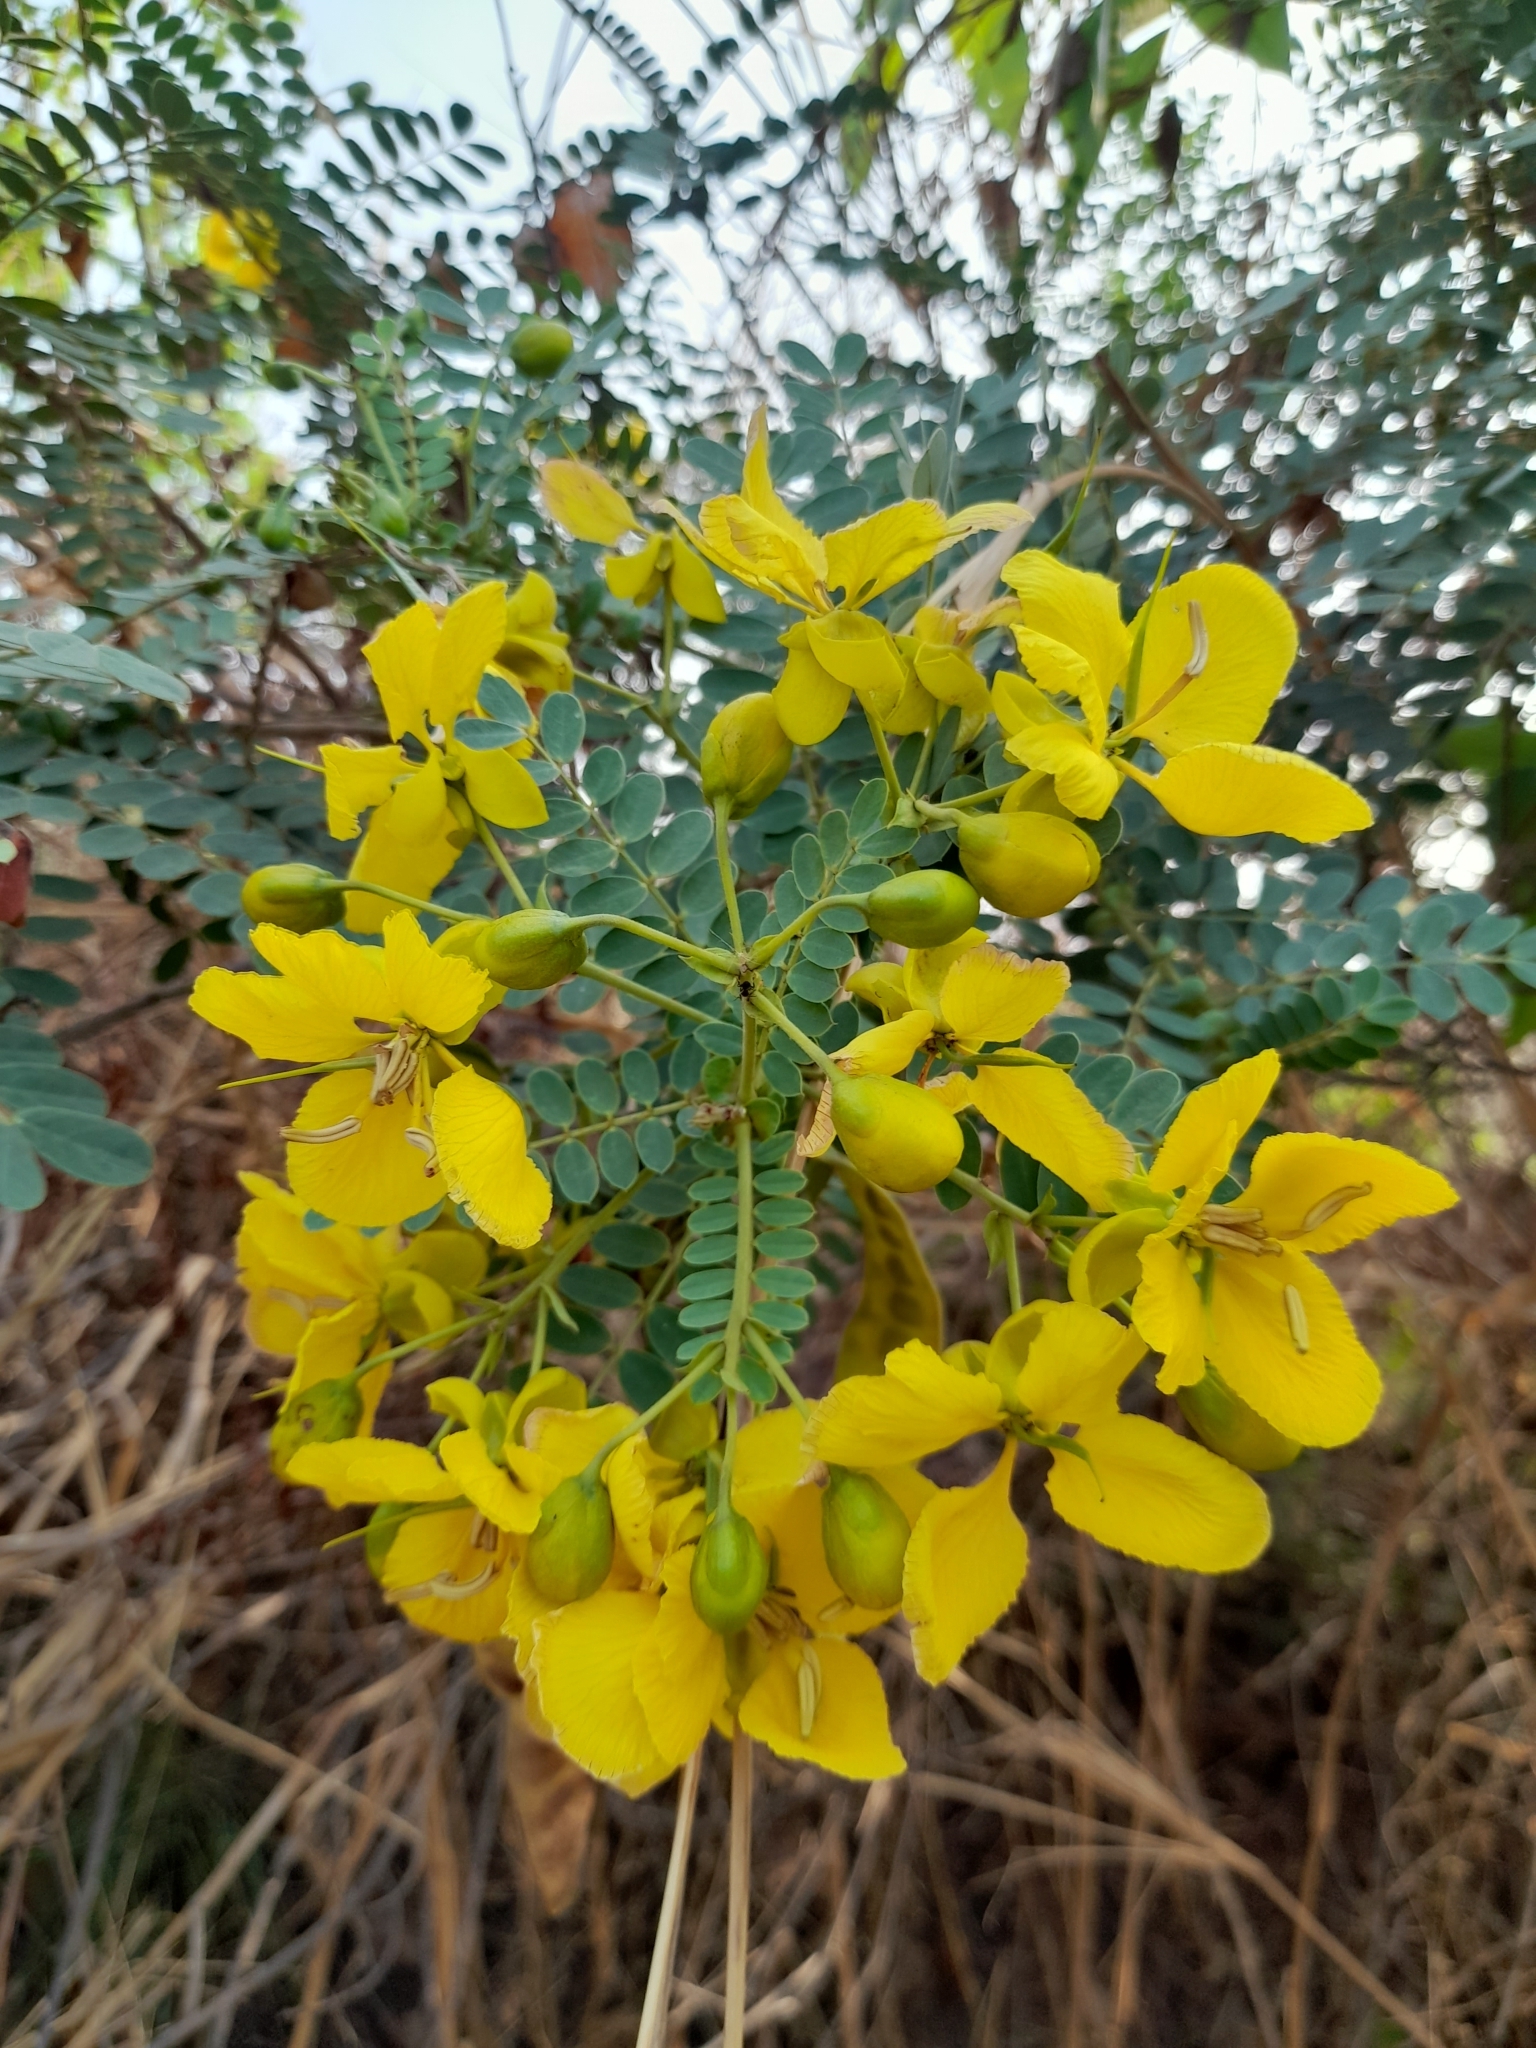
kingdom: Plantae
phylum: Tracheophyta
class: Magnoliopsida
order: Fabales
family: Fabaceae
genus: Senna
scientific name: Senna auriculata
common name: Tanner's cassia
